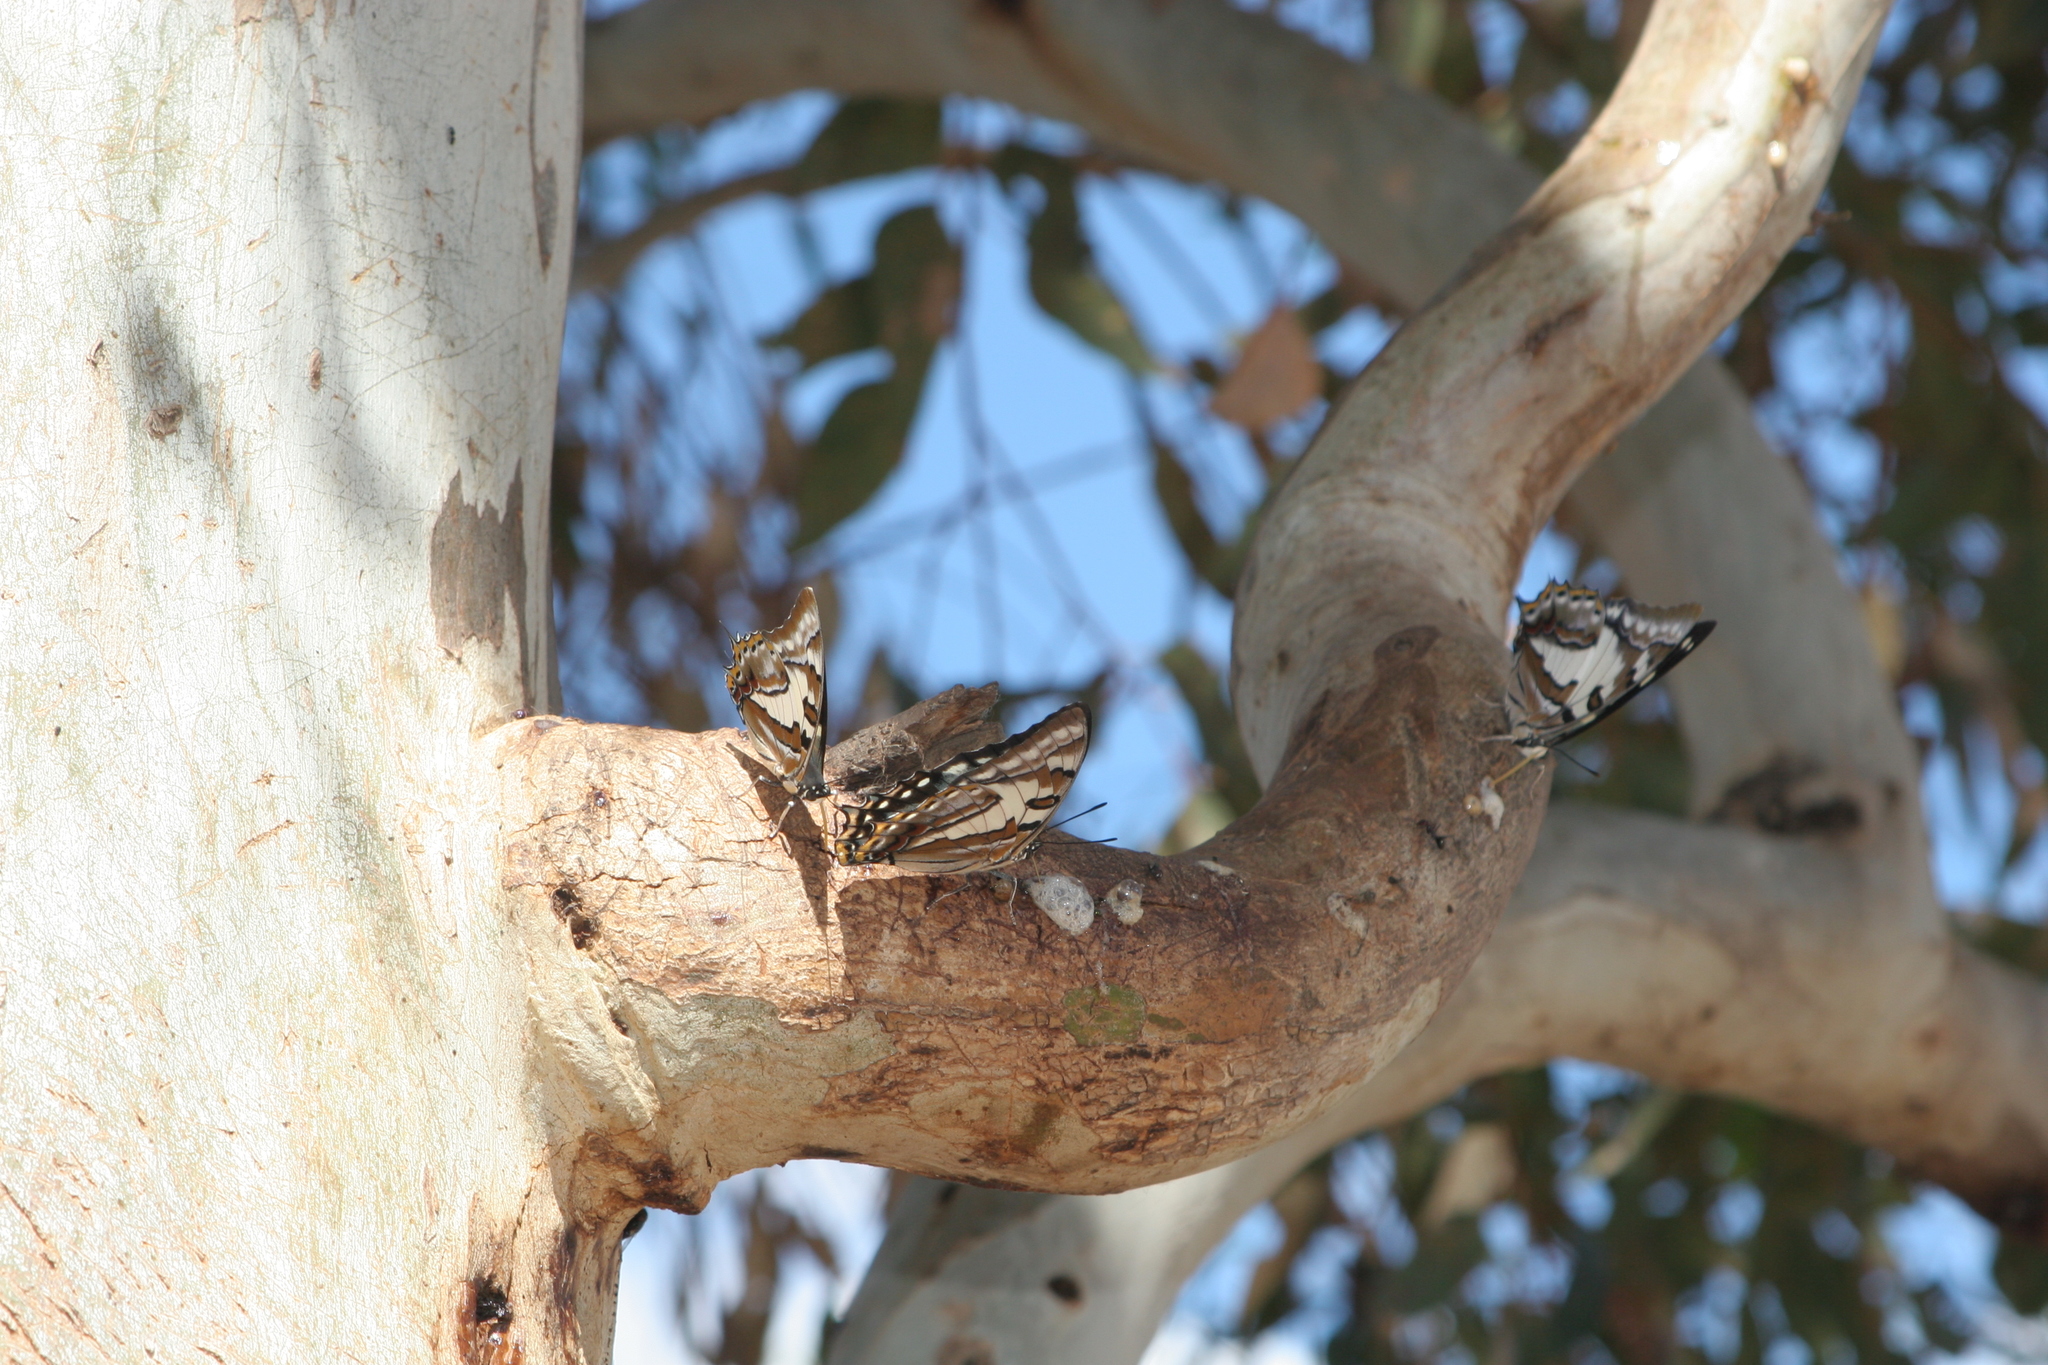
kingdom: Animalia
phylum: Arthropoda
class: Insecta
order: Lepidoptera
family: Nymphalidae
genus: Charaxes
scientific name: Charaxes
